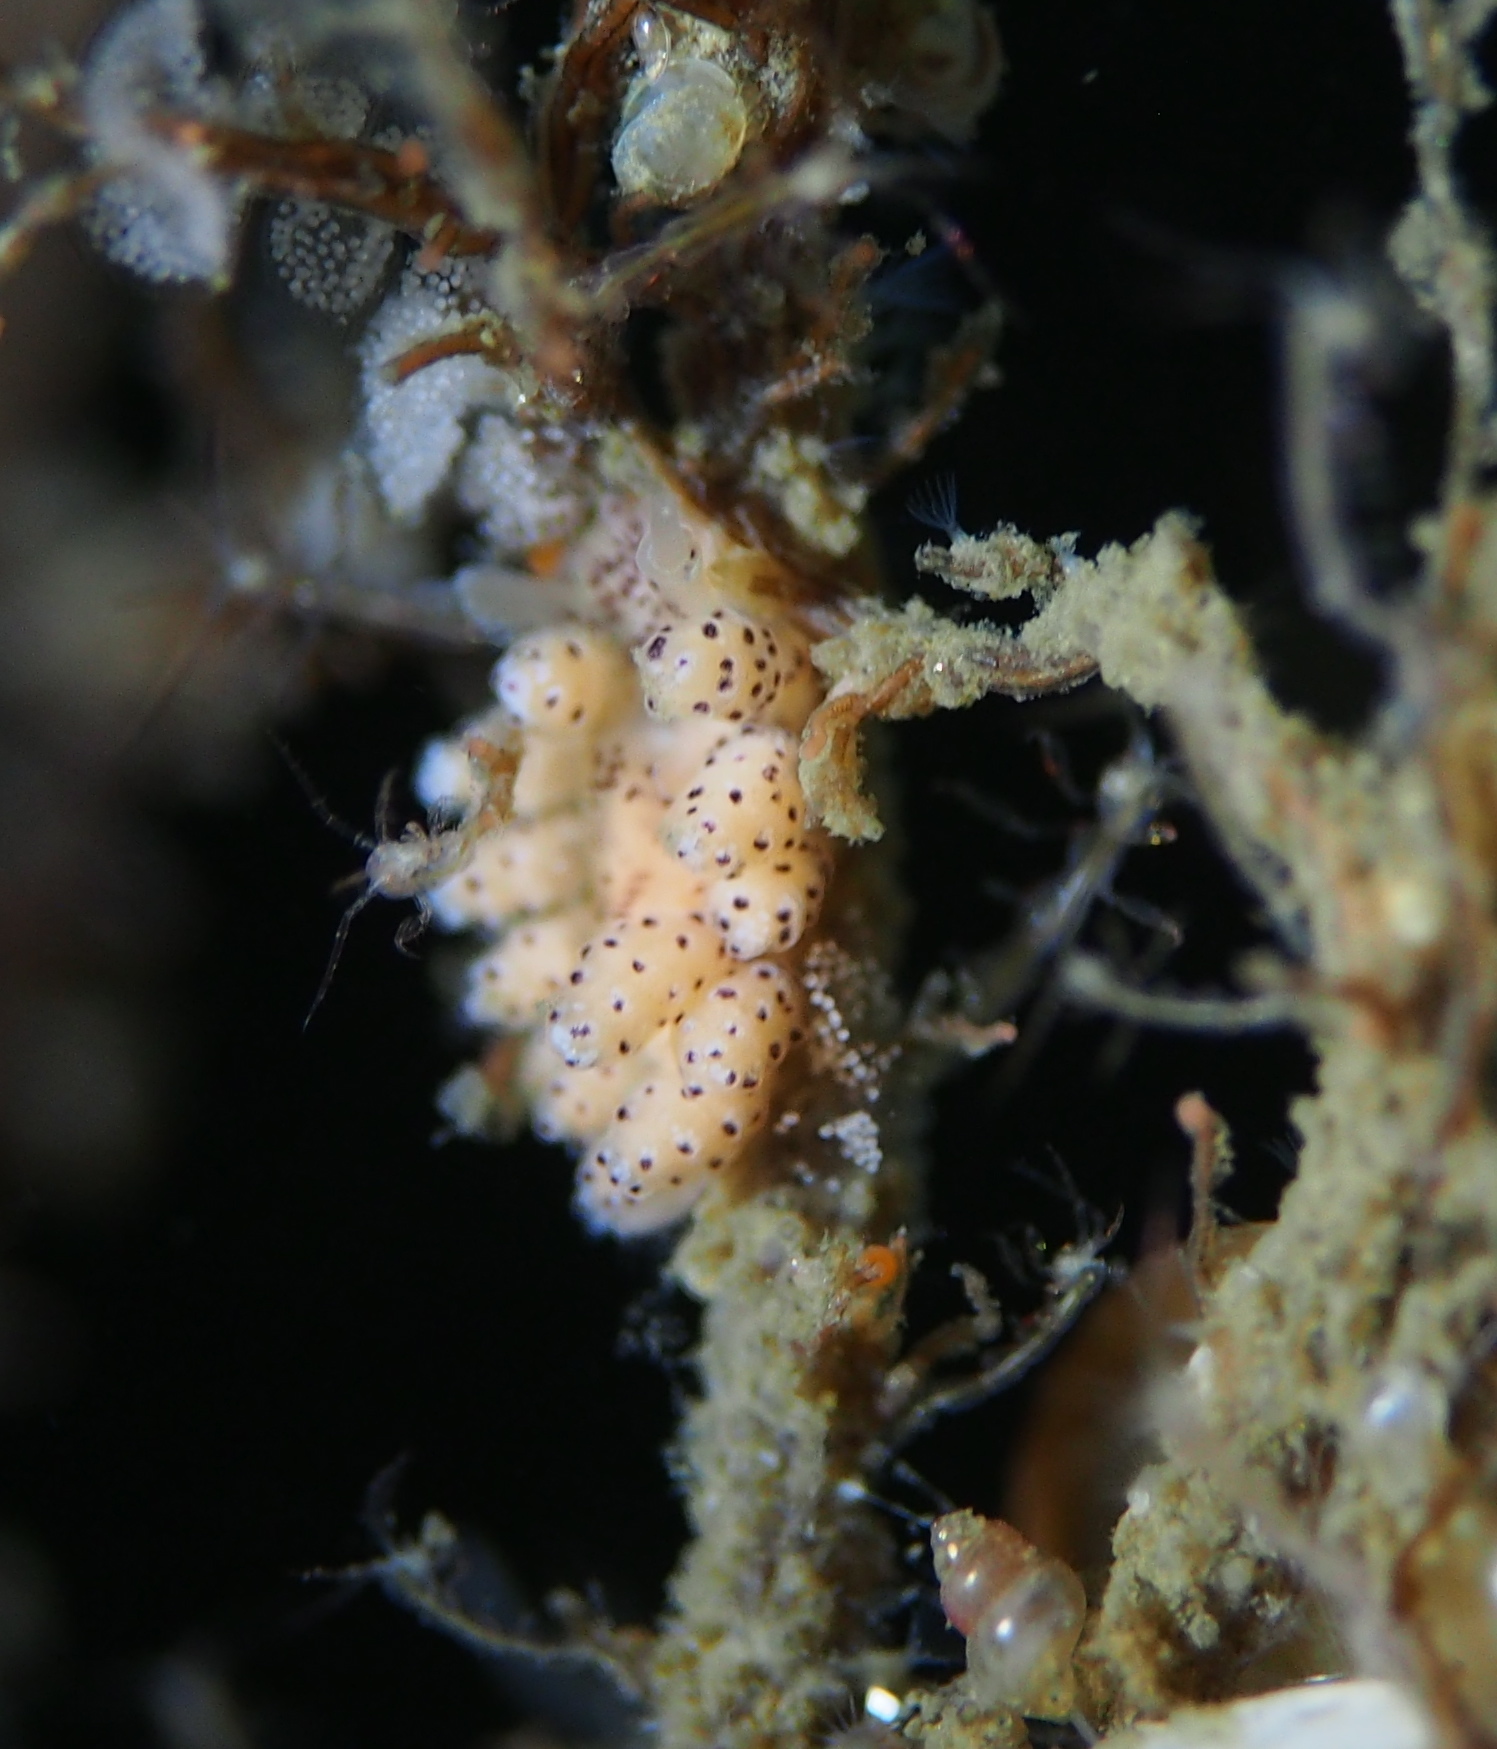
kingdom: Animalia
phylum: Mollusca
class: Gastropoda
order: Nudibranchia
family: Dotidae
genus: Doto
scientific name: Doto dunnei
